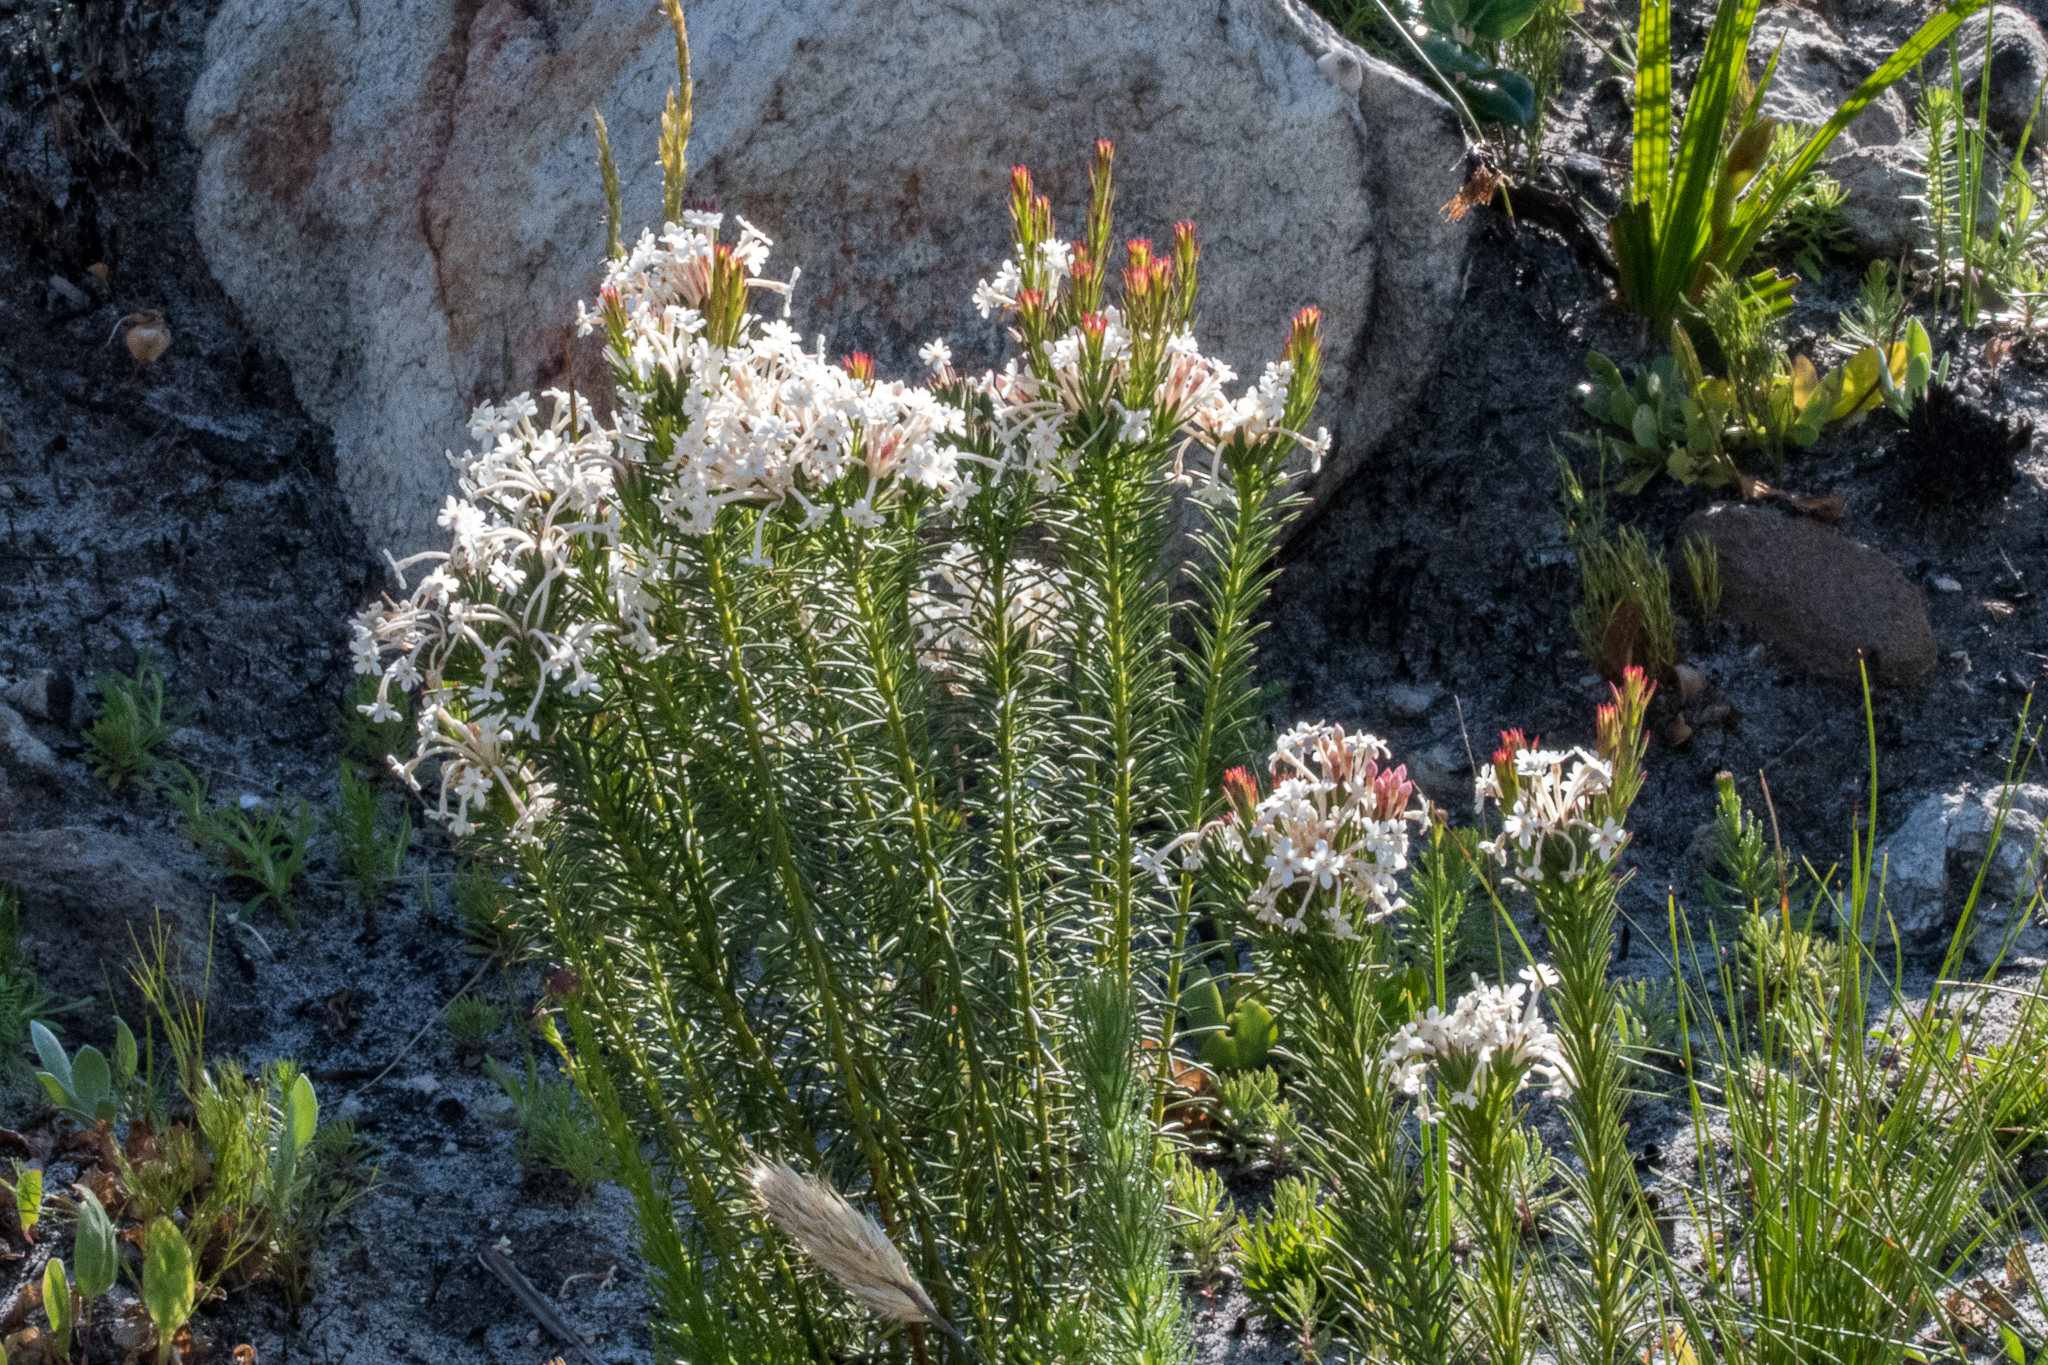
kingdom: Plantae
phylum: Tracheophyta
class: Magnoliopsida
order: Malvales
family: Thymelaeaceae
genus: Gnidia
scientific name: Gnidia pinifolia
